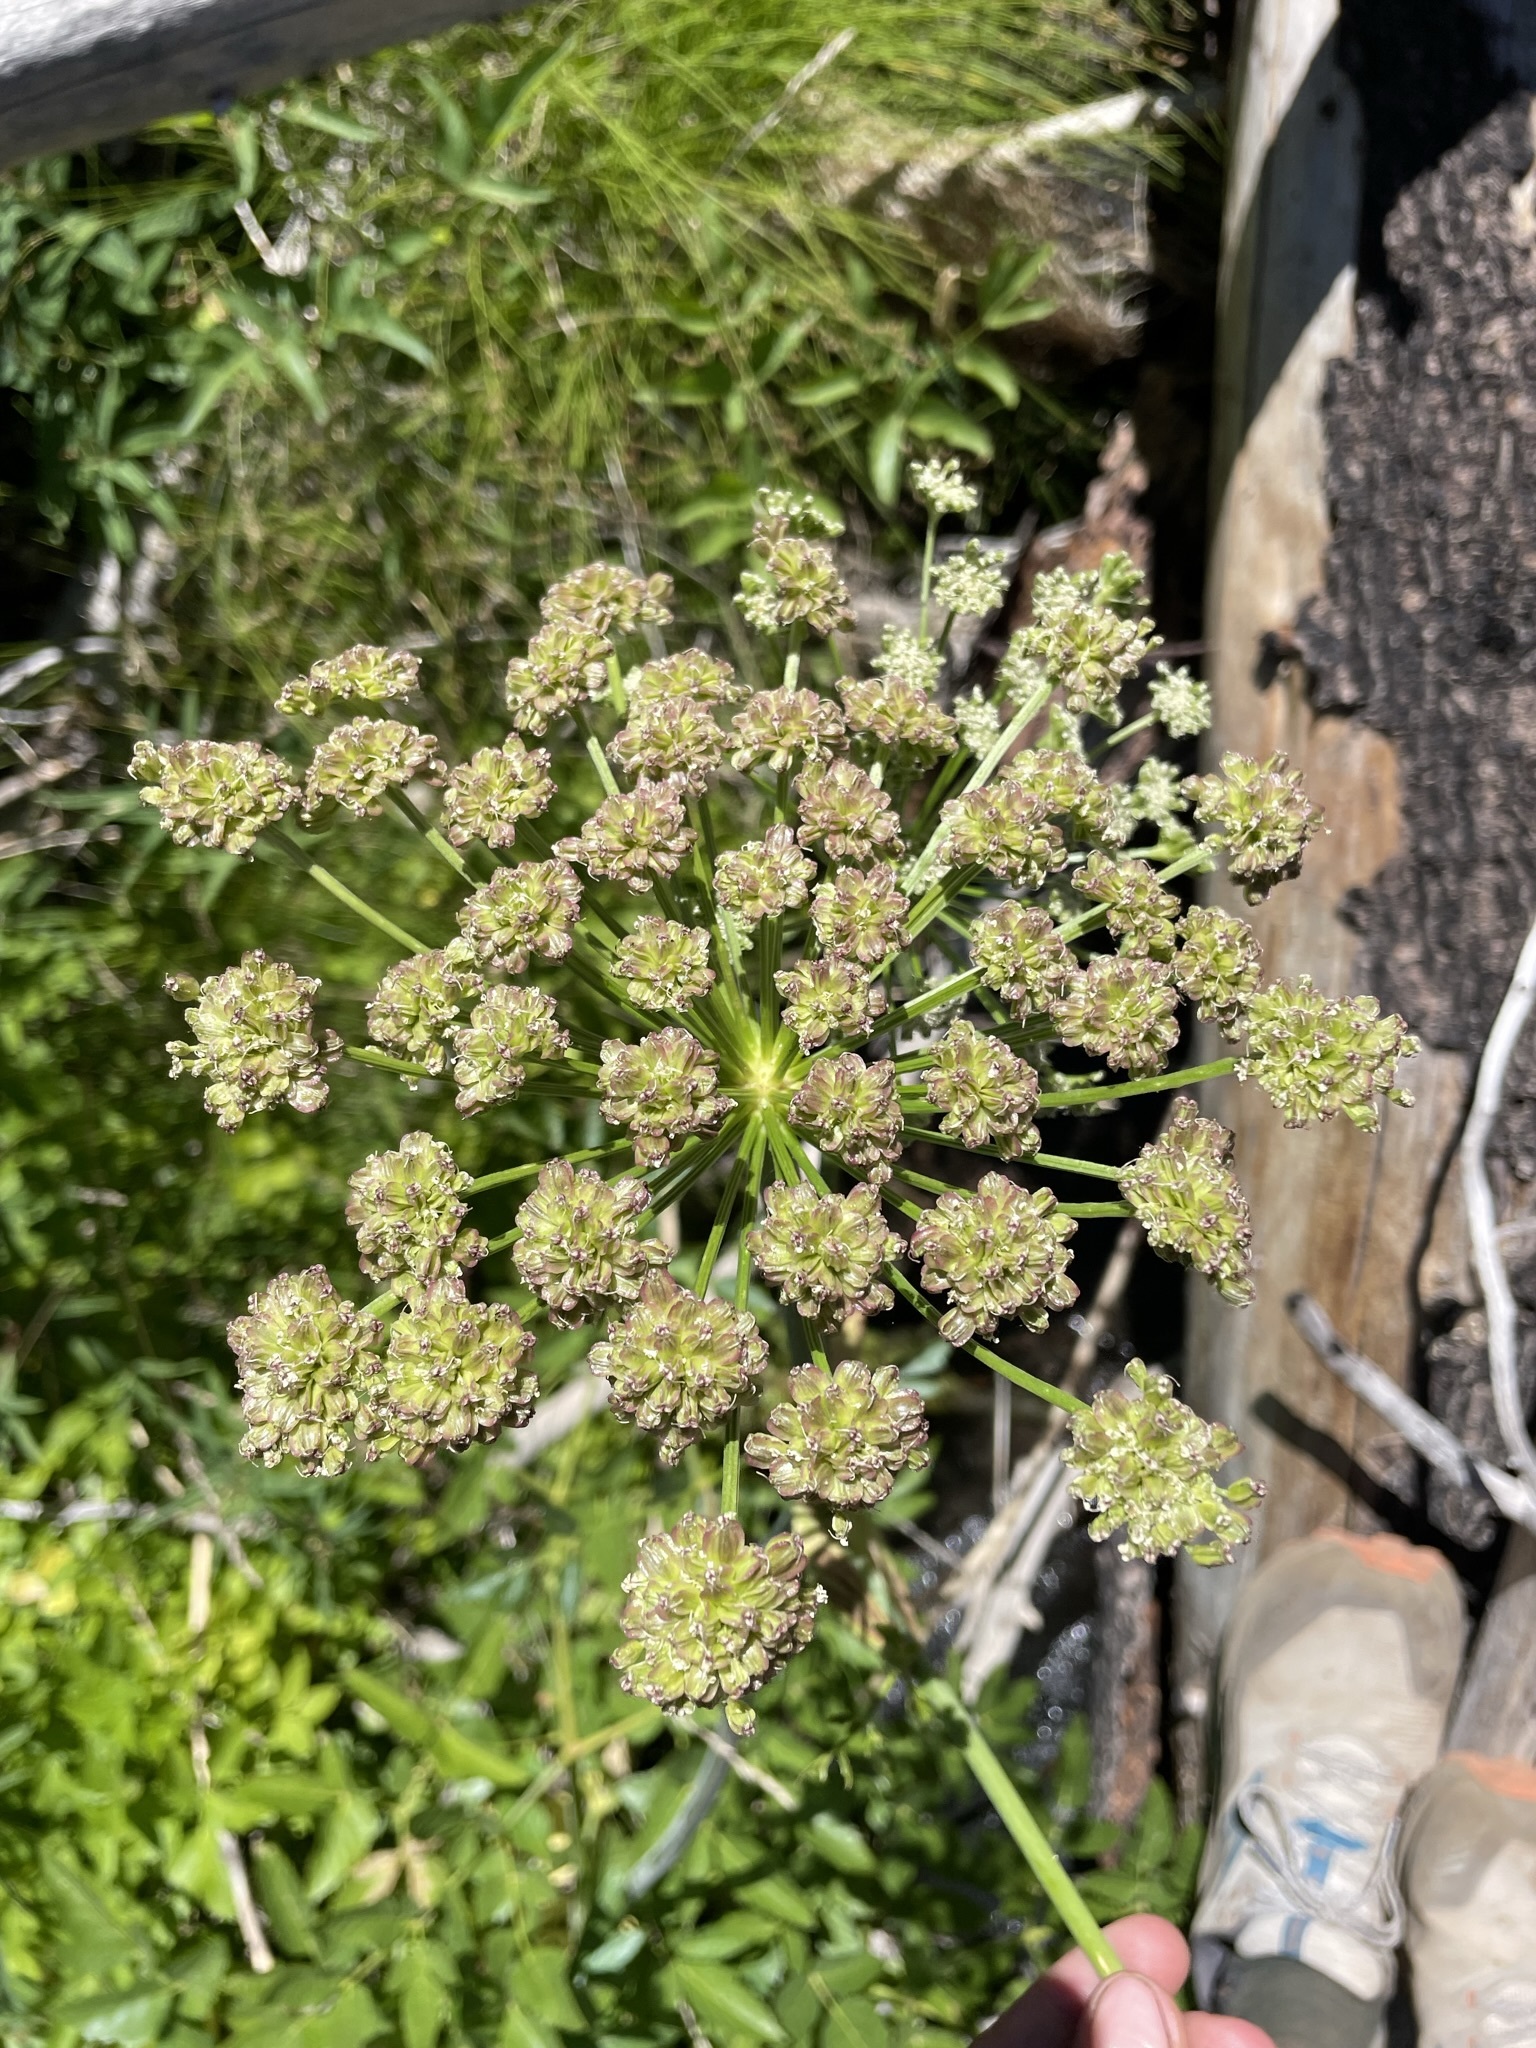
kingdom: Plantae
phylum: Tracheophyta
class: Magnoliopsida
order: Apiales
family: Apiaceae
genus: Angelica
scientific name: Angelica arguta
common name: Lyall's angelica
